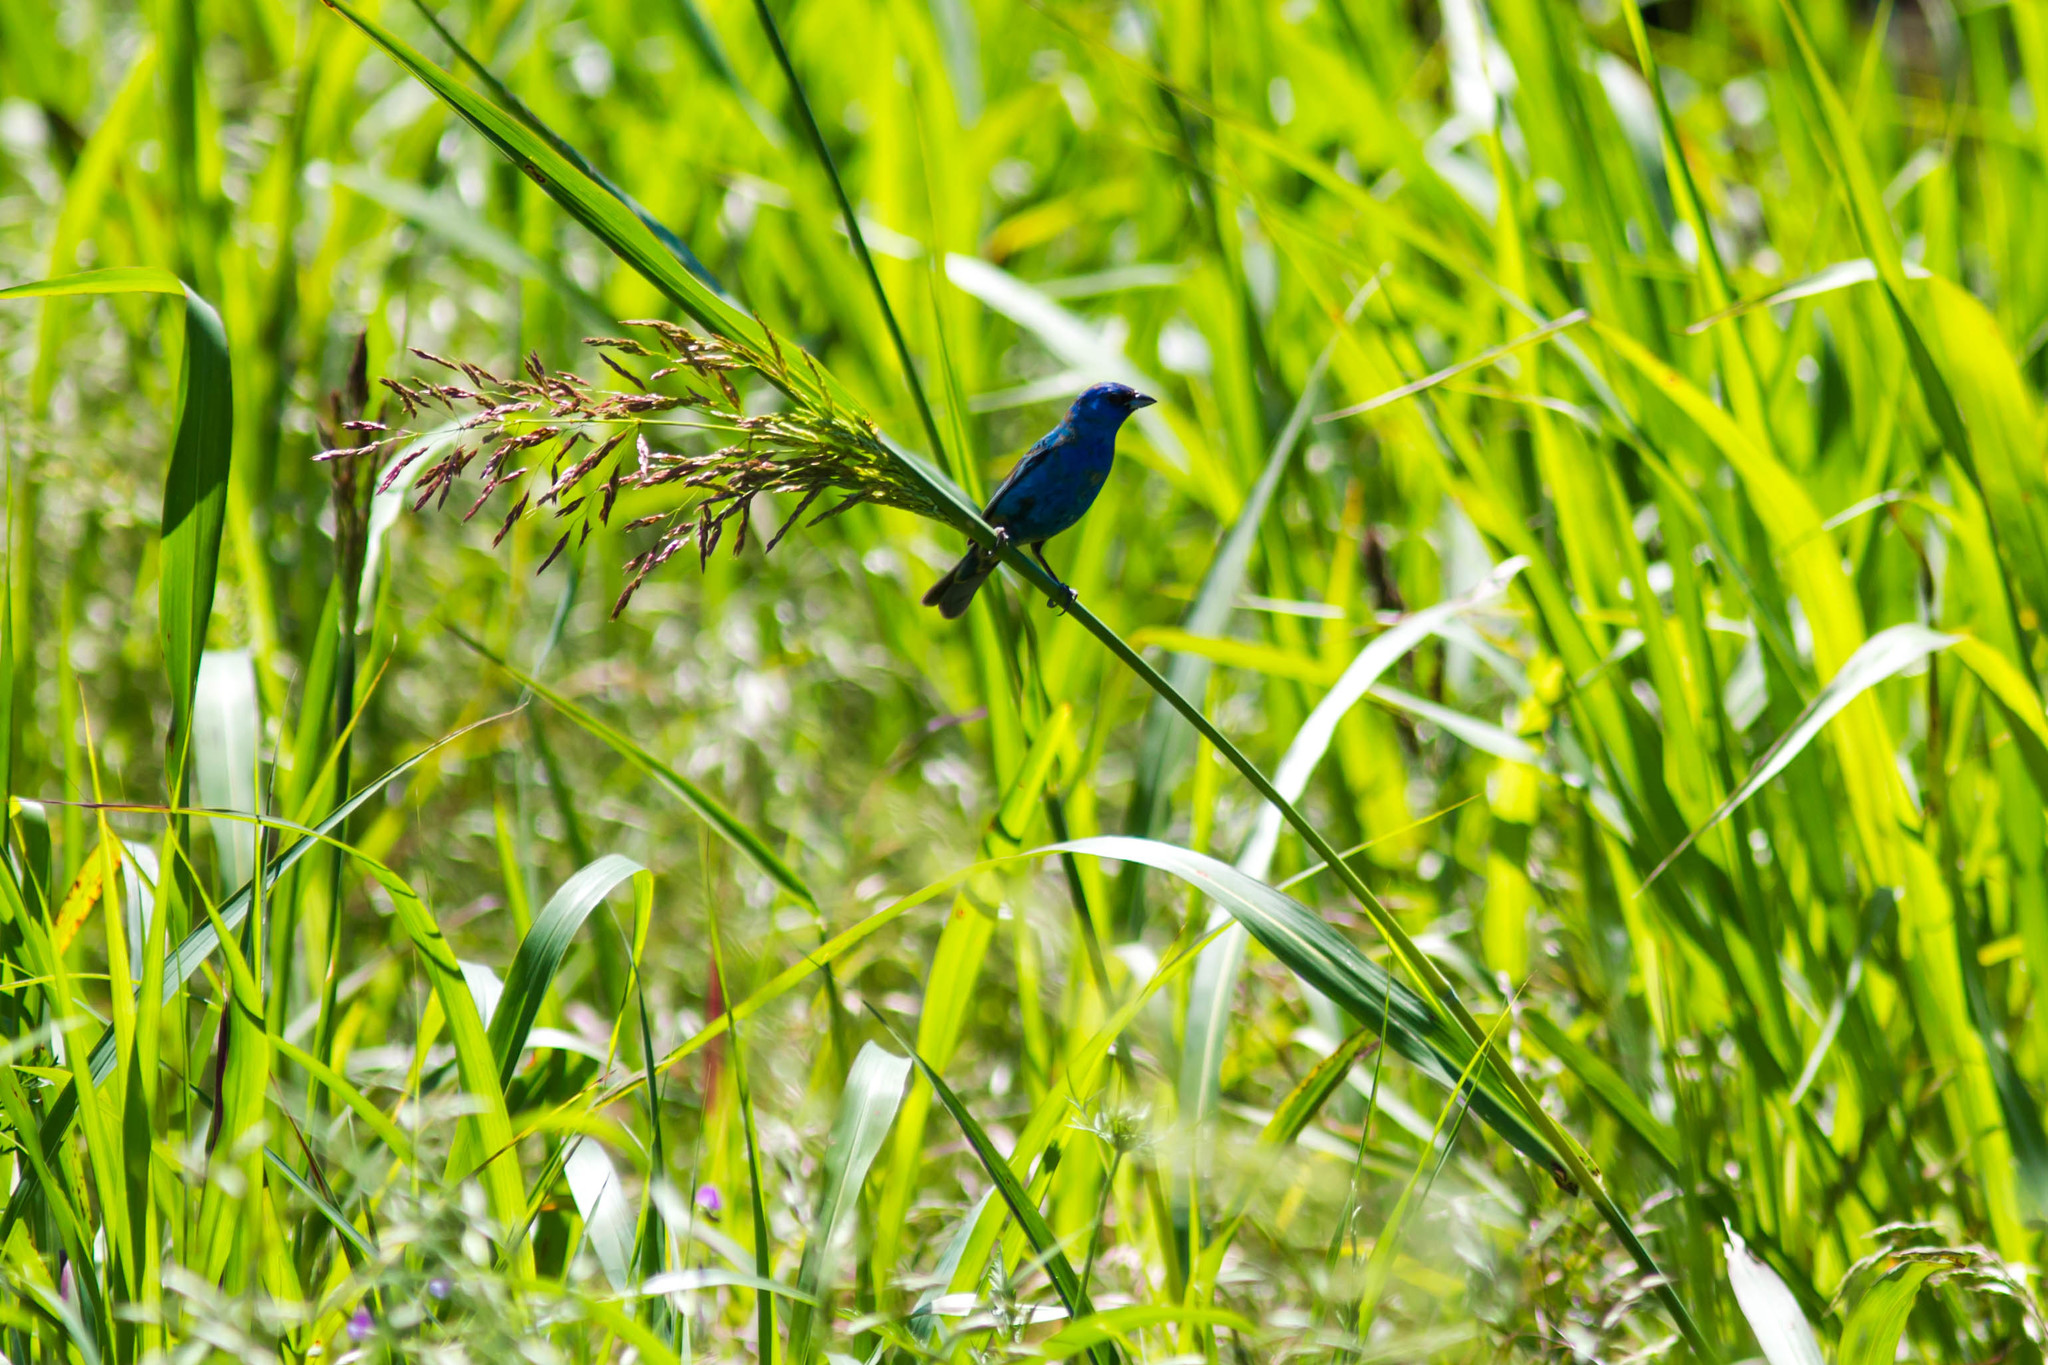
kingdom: Animalia
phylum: Chordata
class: Aves
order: Passeriformes
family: Cardinalidae
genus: Passerina
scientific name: Passerina cyanea
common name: Indigo bunting
